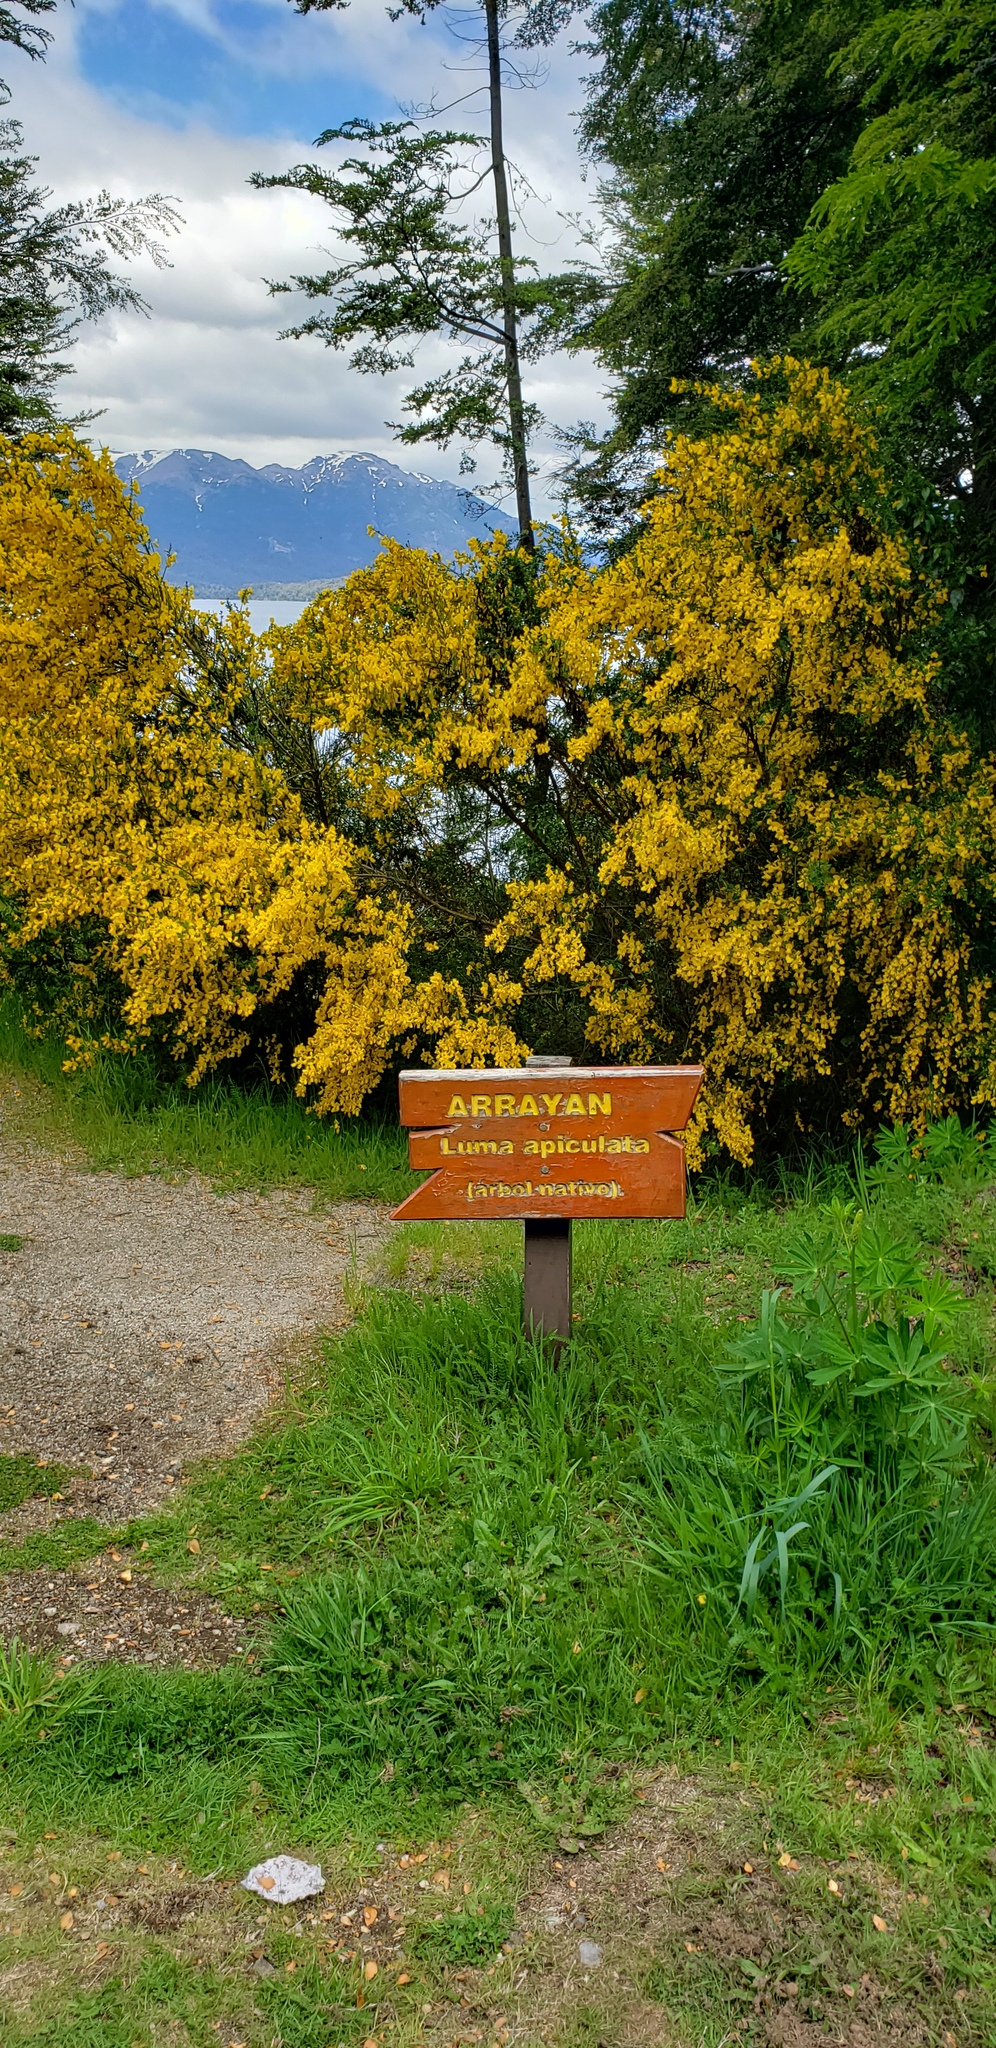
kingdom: Plantae
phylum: Tracheophyta
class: Magnoliopsida
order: Fabales
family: Fabaceae
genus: Cytisus
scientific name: Cytisus scoparius
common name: Scotch broom
